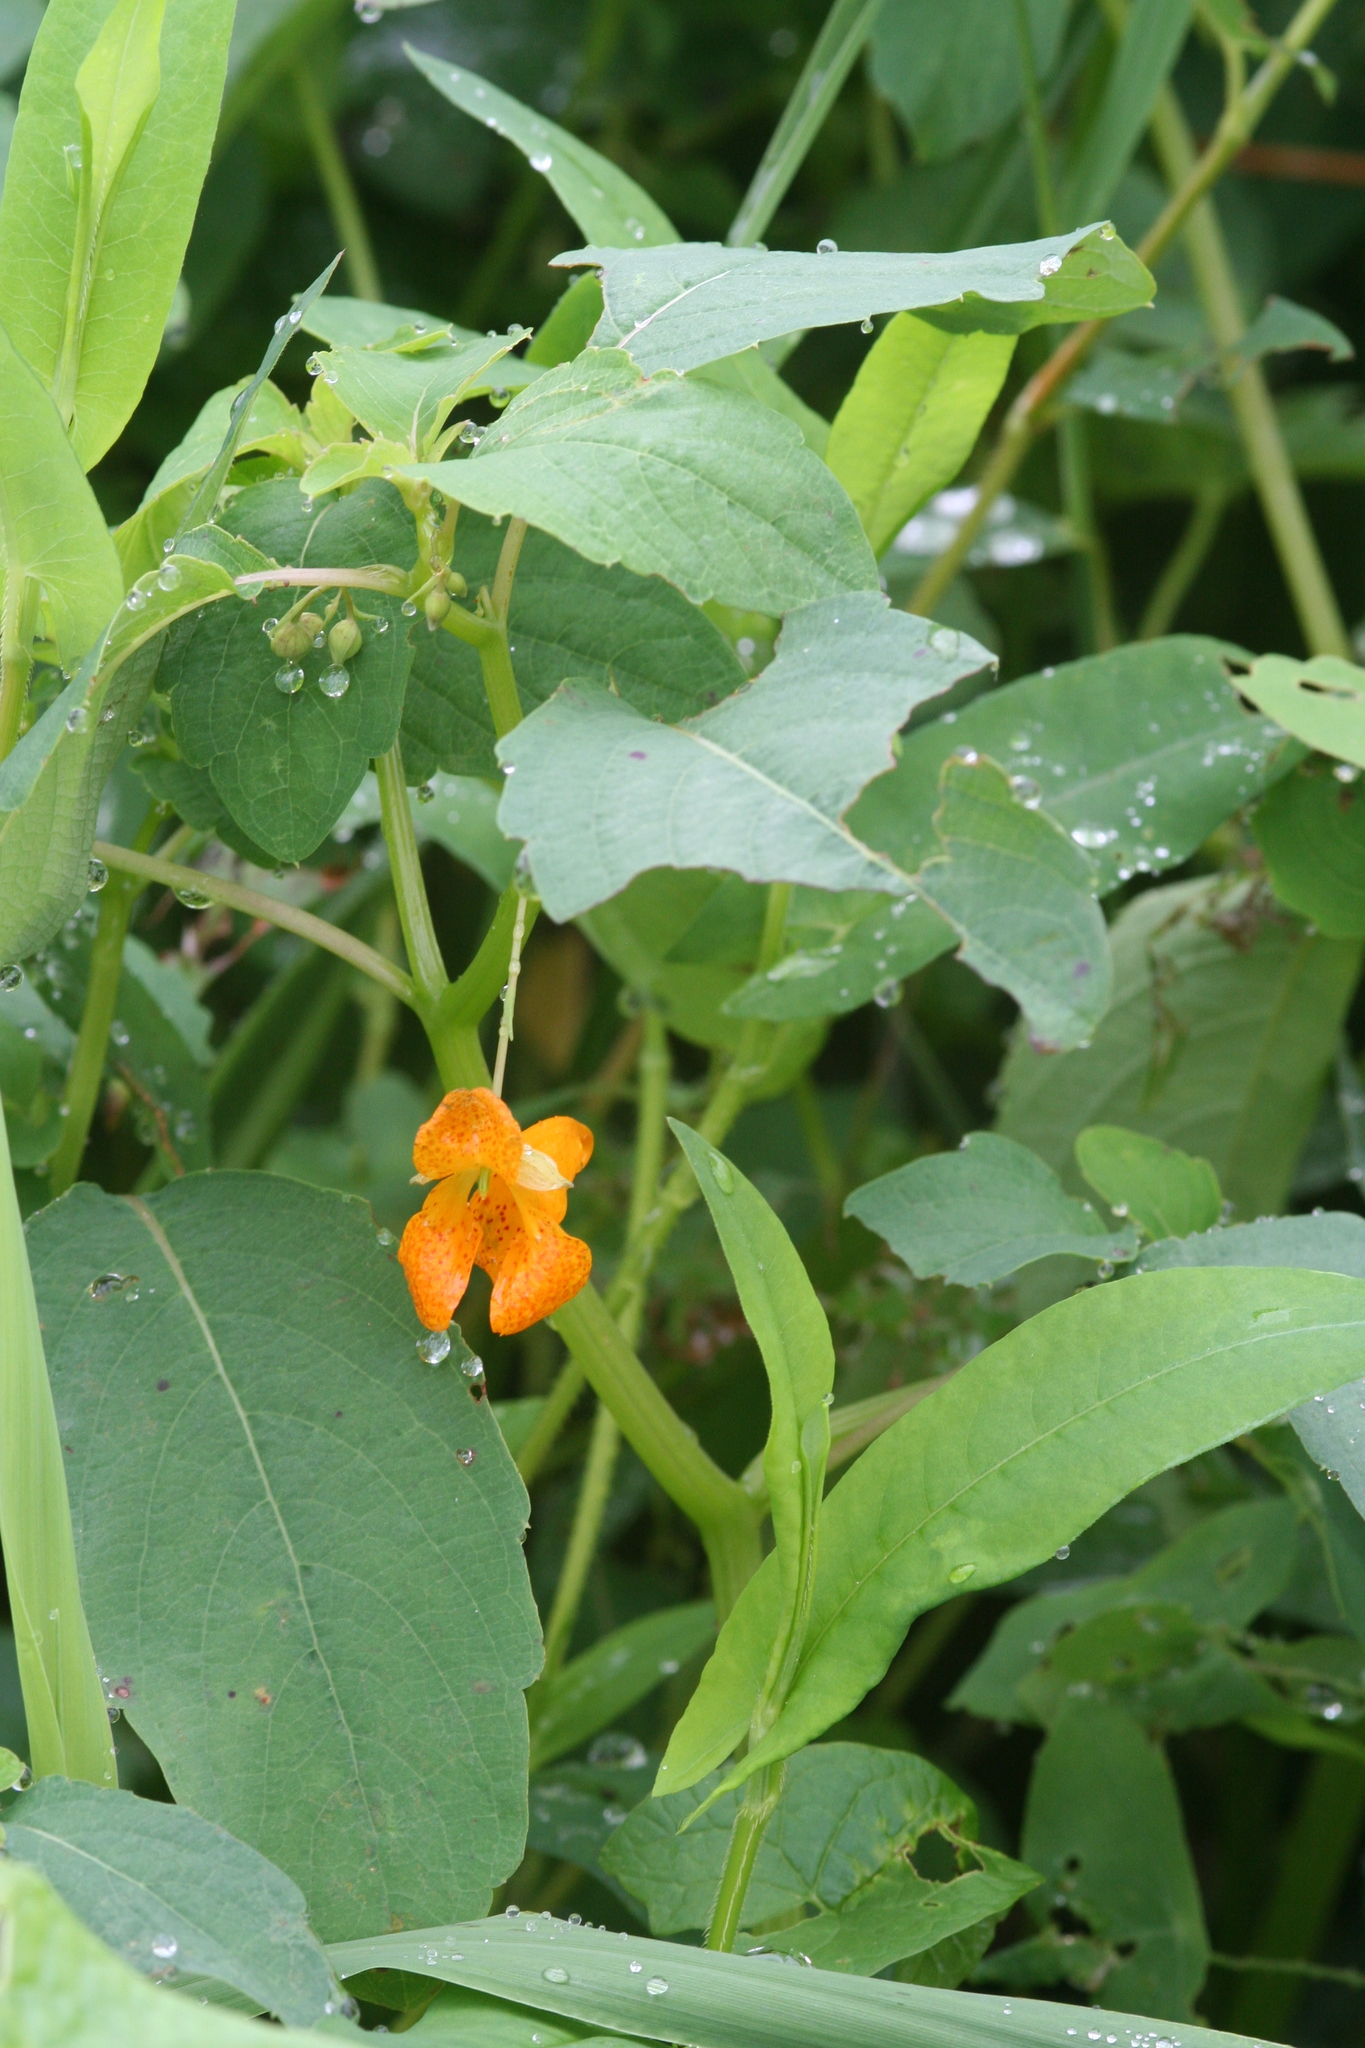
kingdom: Plantae
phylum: Tracheophyta
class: Magnoliopsida
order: Ericales
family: Balsaminaceae
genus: Impatiens
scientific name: Impatiens capensis
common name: Orange balsam
